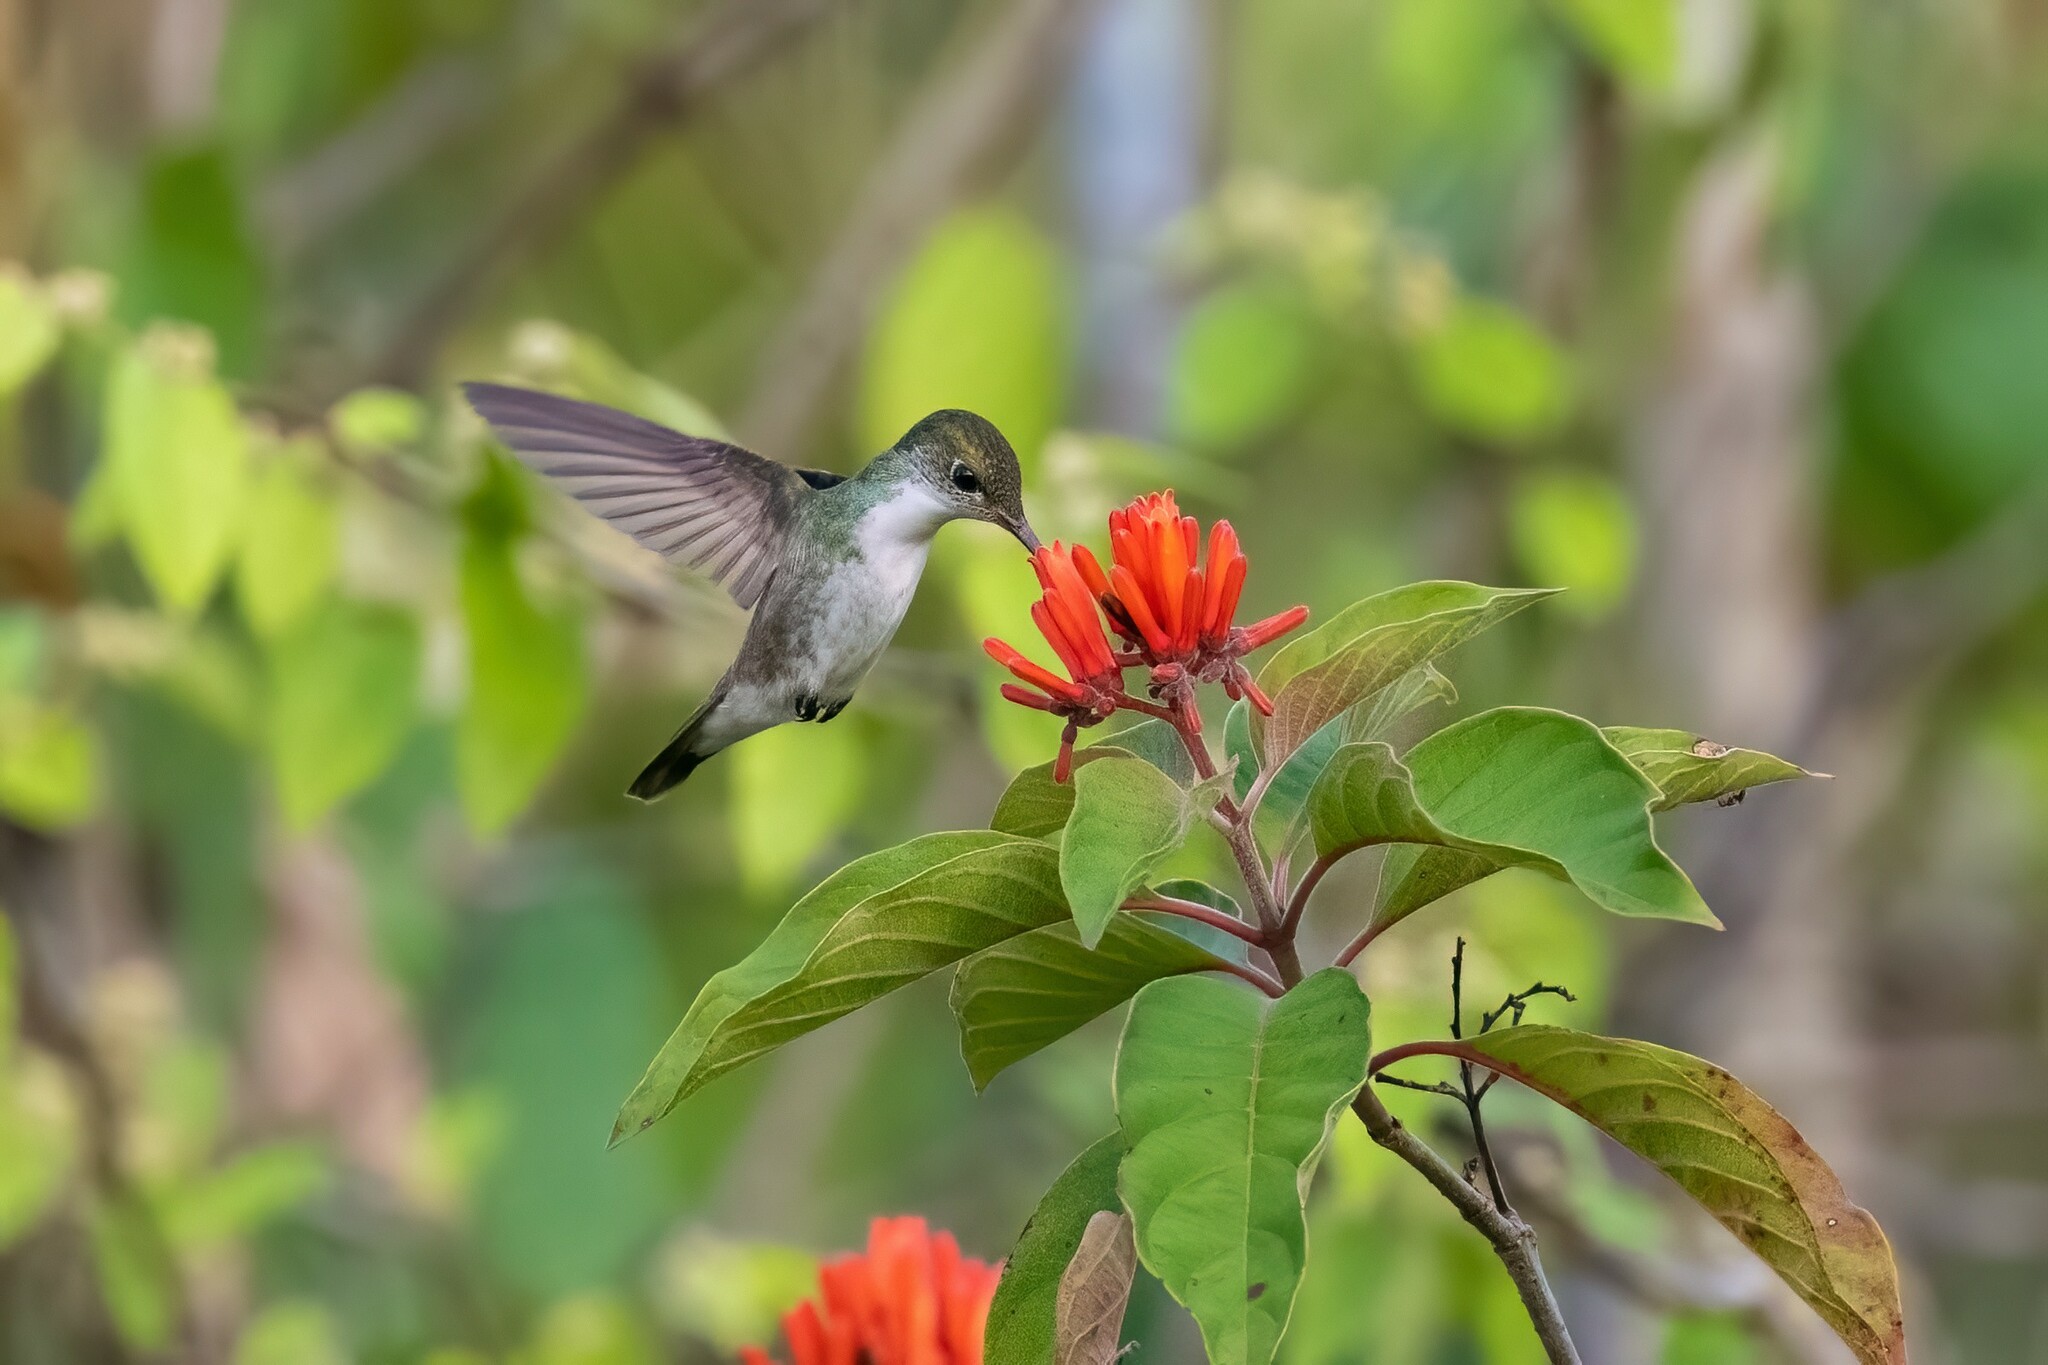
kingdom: Animalia
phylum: Chordata
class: Aves
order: Apodiformes
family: Trochilidae
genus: Chlorestes
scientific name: Chlorestes candida
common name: White-bellied emerald
